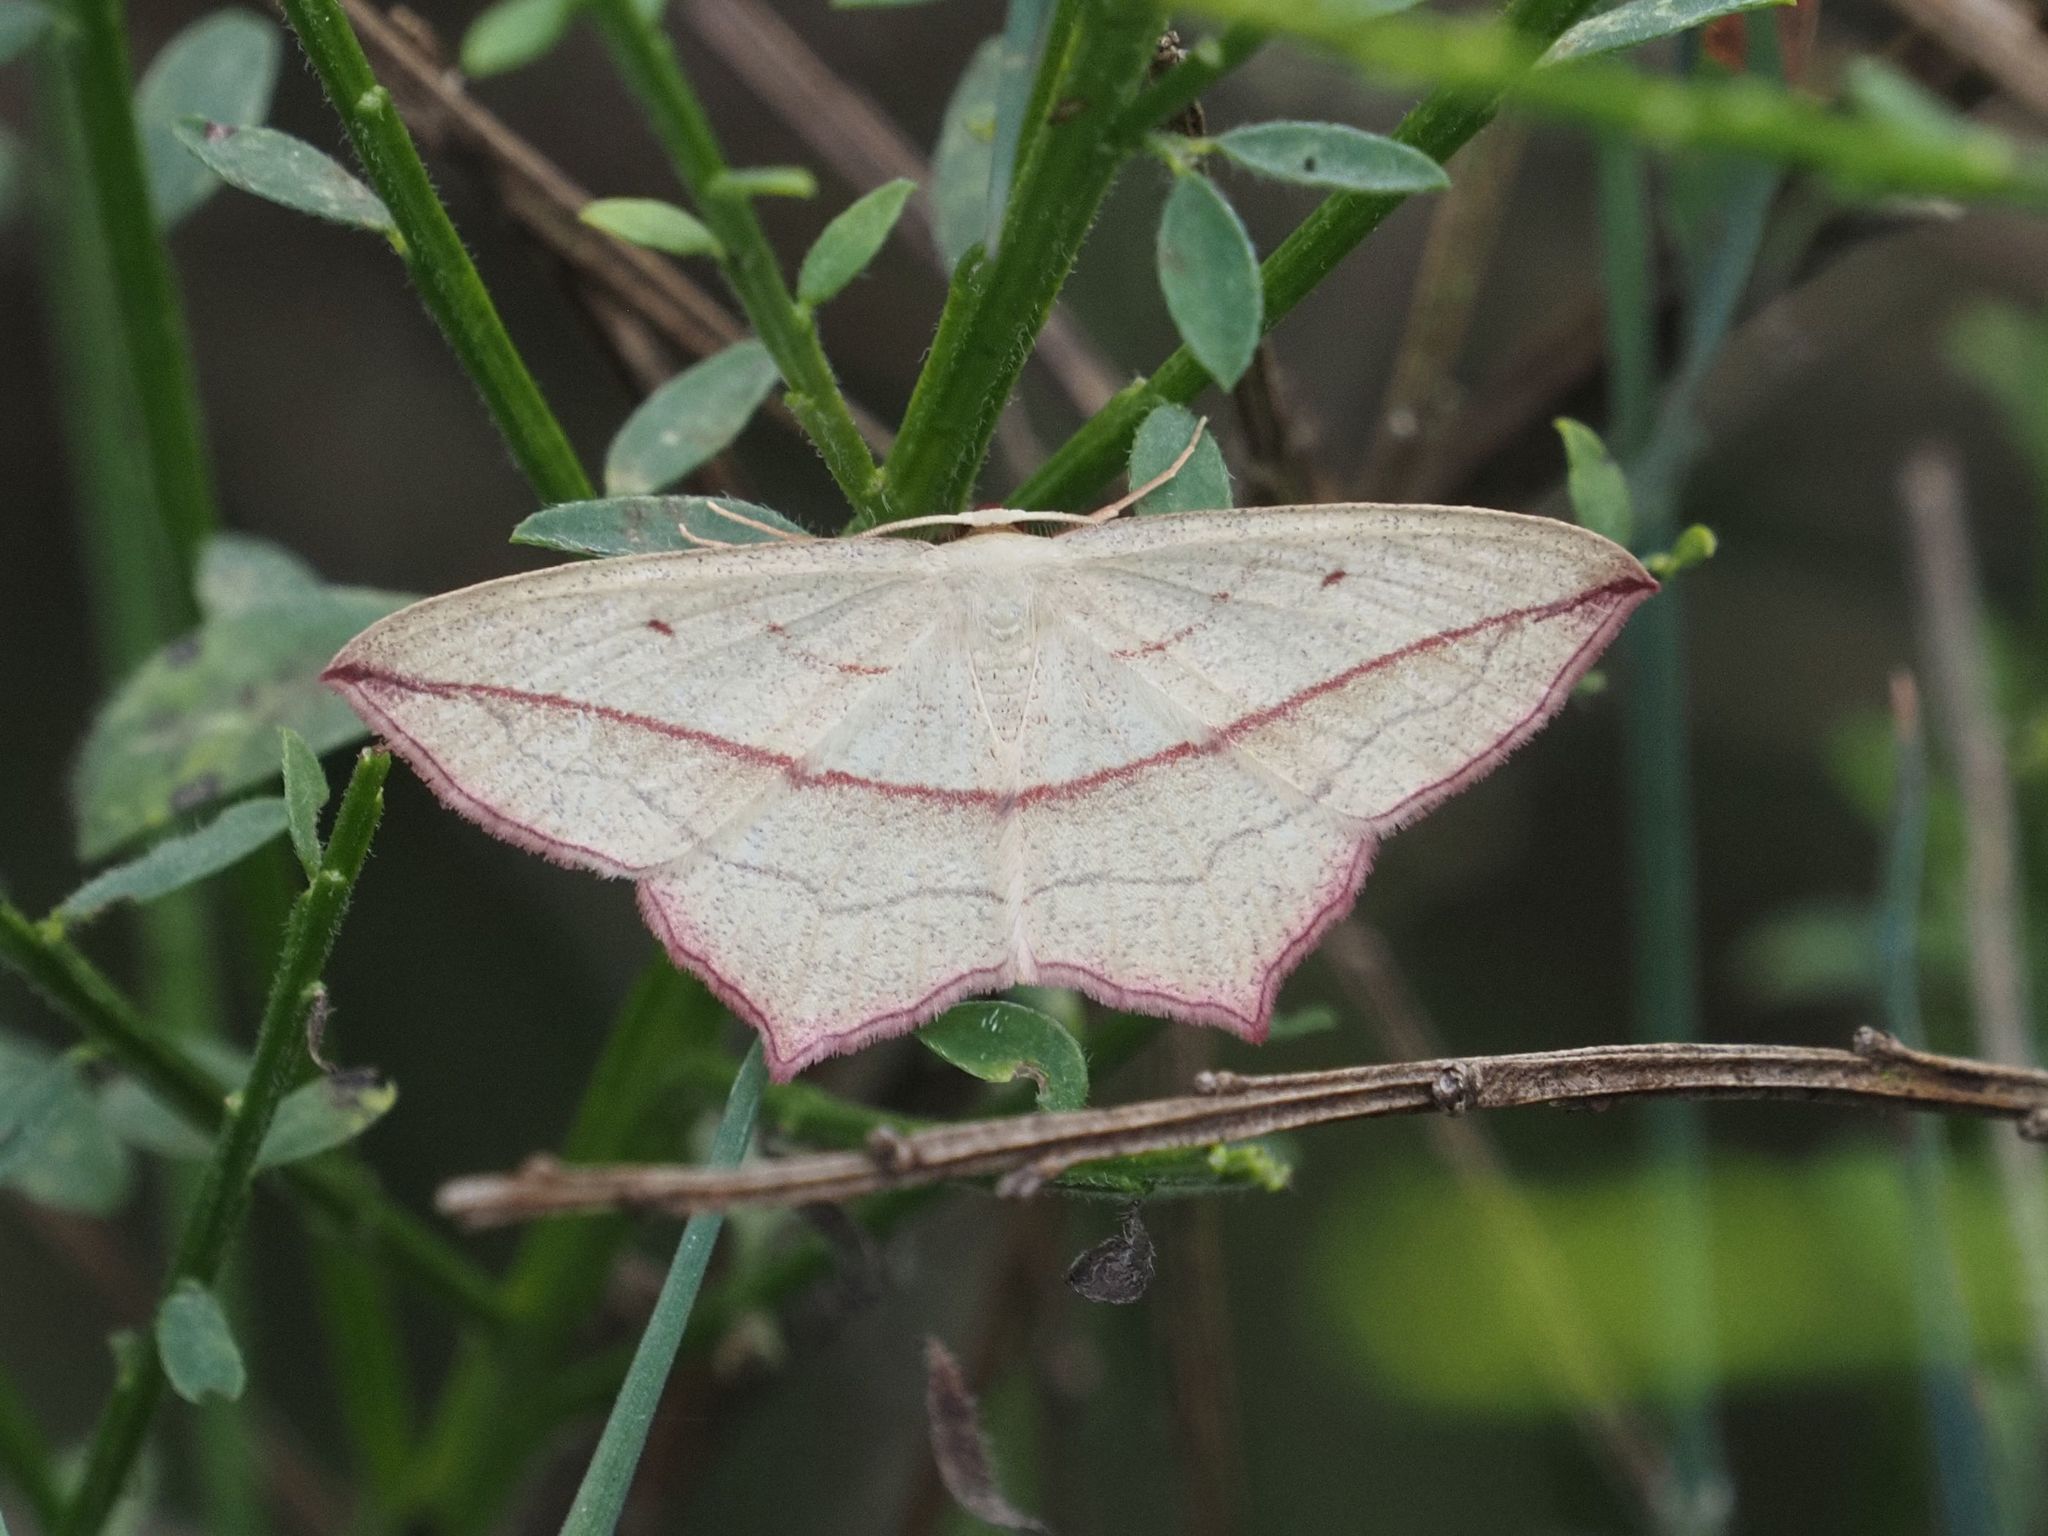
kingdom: Animalia
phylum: Arthropoda
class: Insecta
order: Lepidoptera
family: Geometridae
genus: Timandra
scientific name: Timandra comae
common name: Blood-vein
